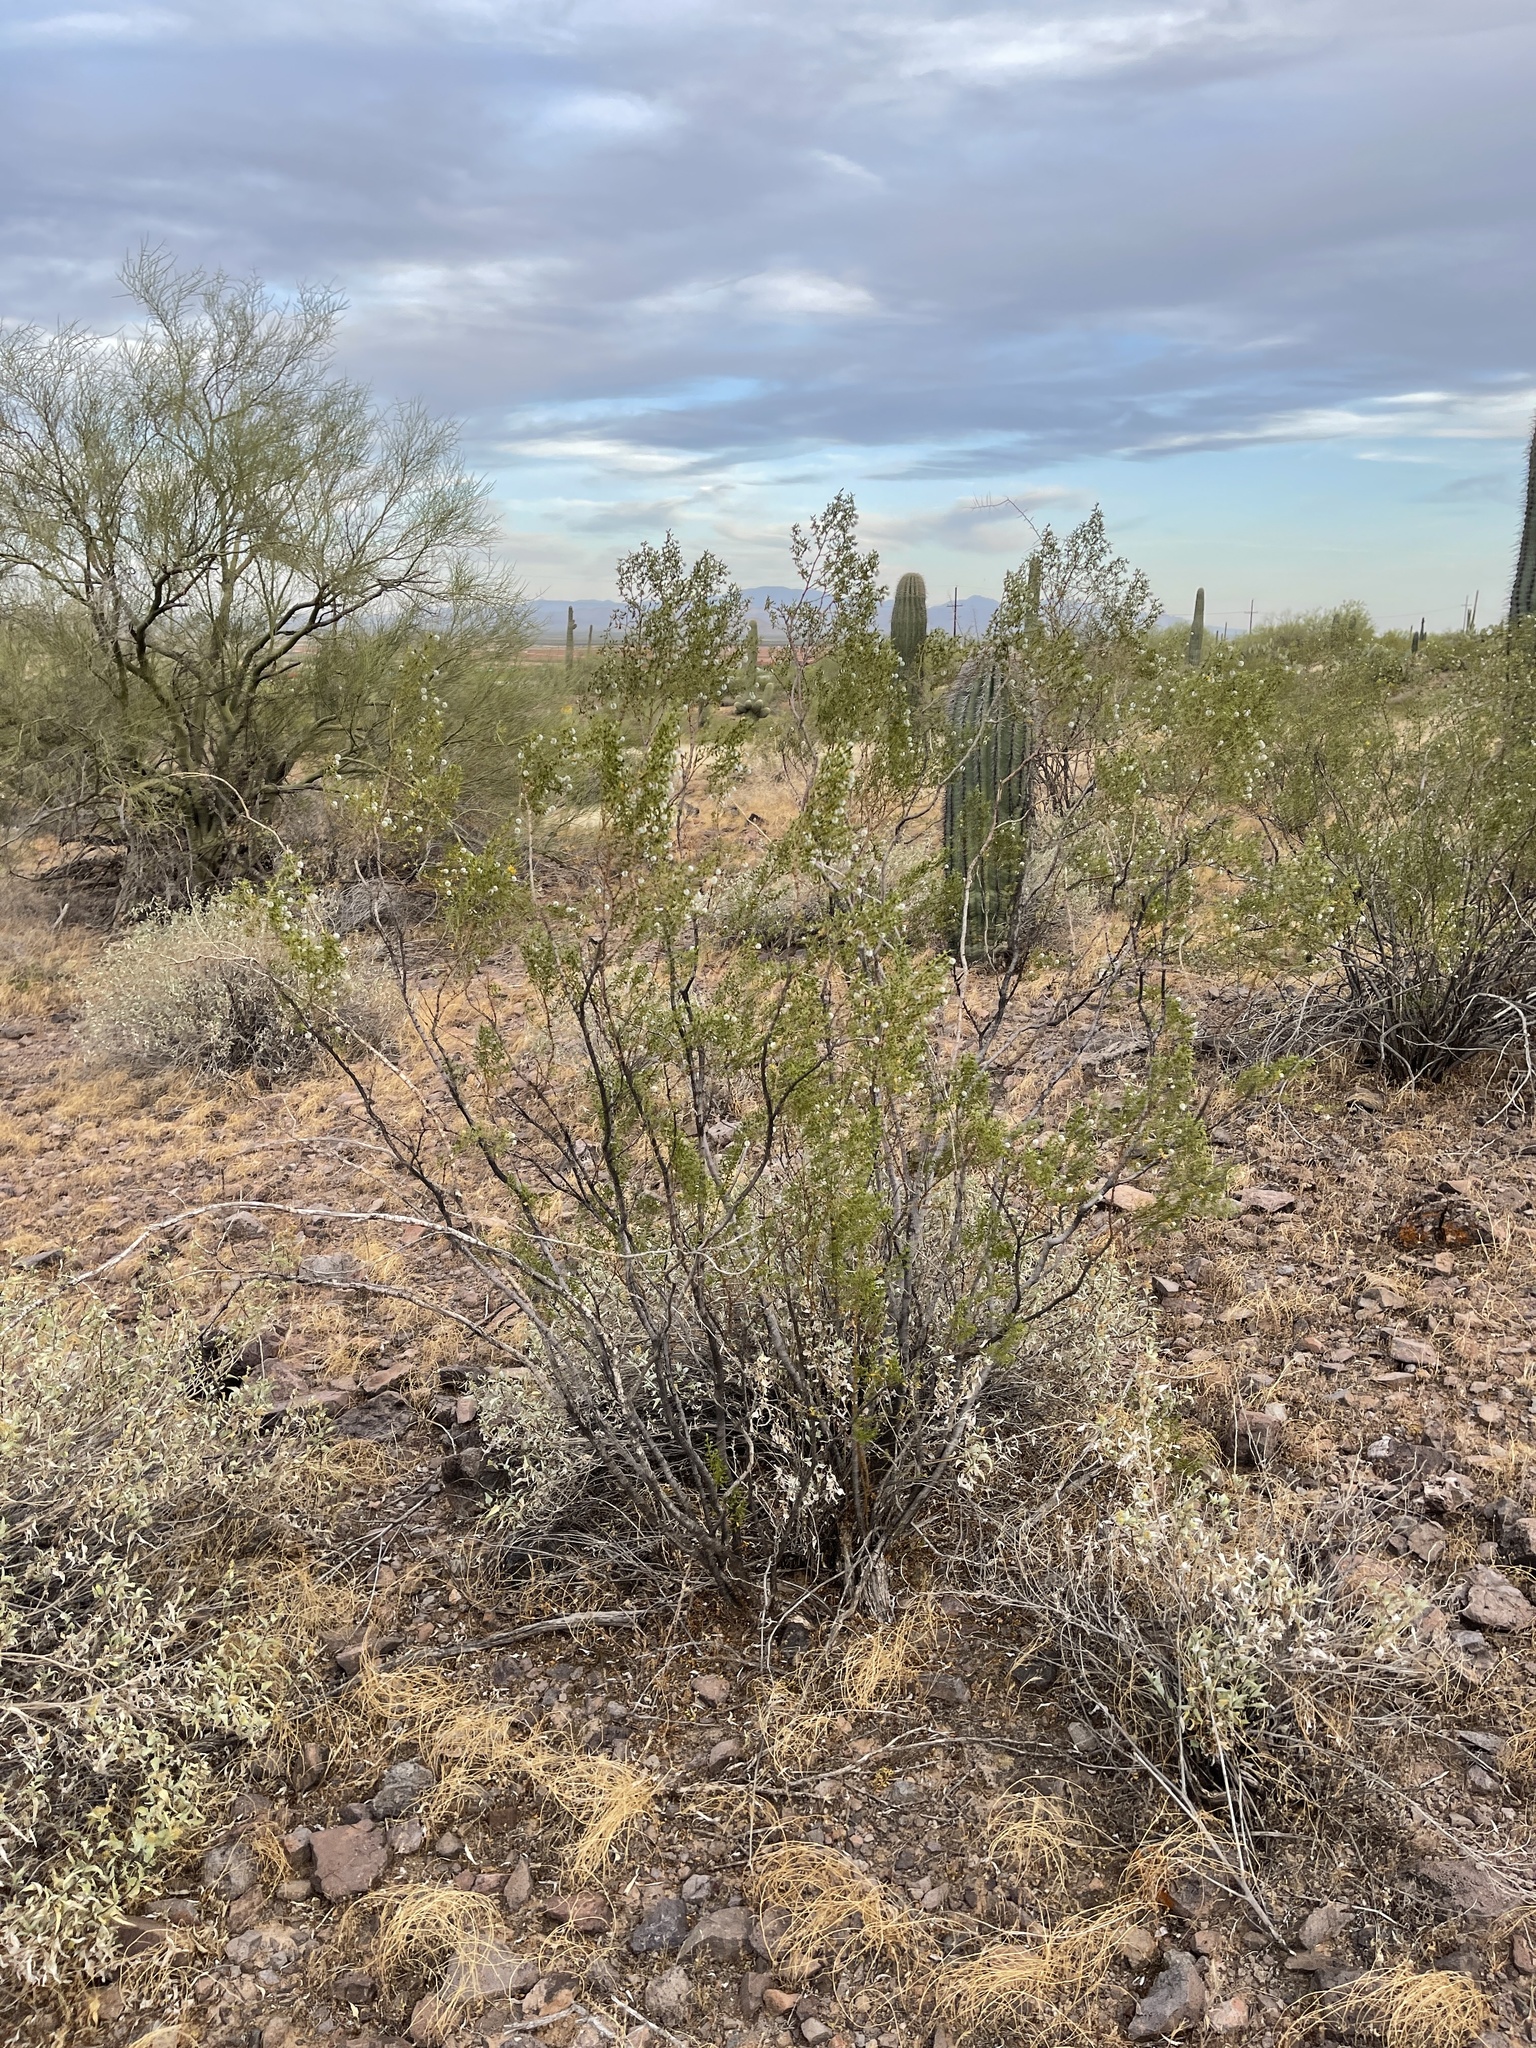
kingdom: Plantae
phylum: Tracheophyta
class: Magnoliopsida
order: Zygophyllales
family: Zygophyllaceae
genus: Larrea
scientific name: Larrea tridentata
